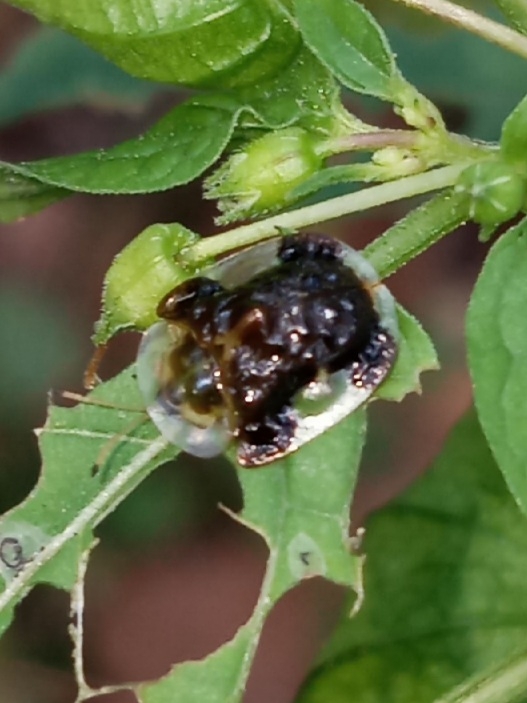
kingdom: Animalia
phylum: Arthropoda
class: Insecta
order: Coleoptera
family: Chrysomelidae
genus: Helocassis
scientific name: Helocassis clavata
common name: Clavate tortoise beetle
